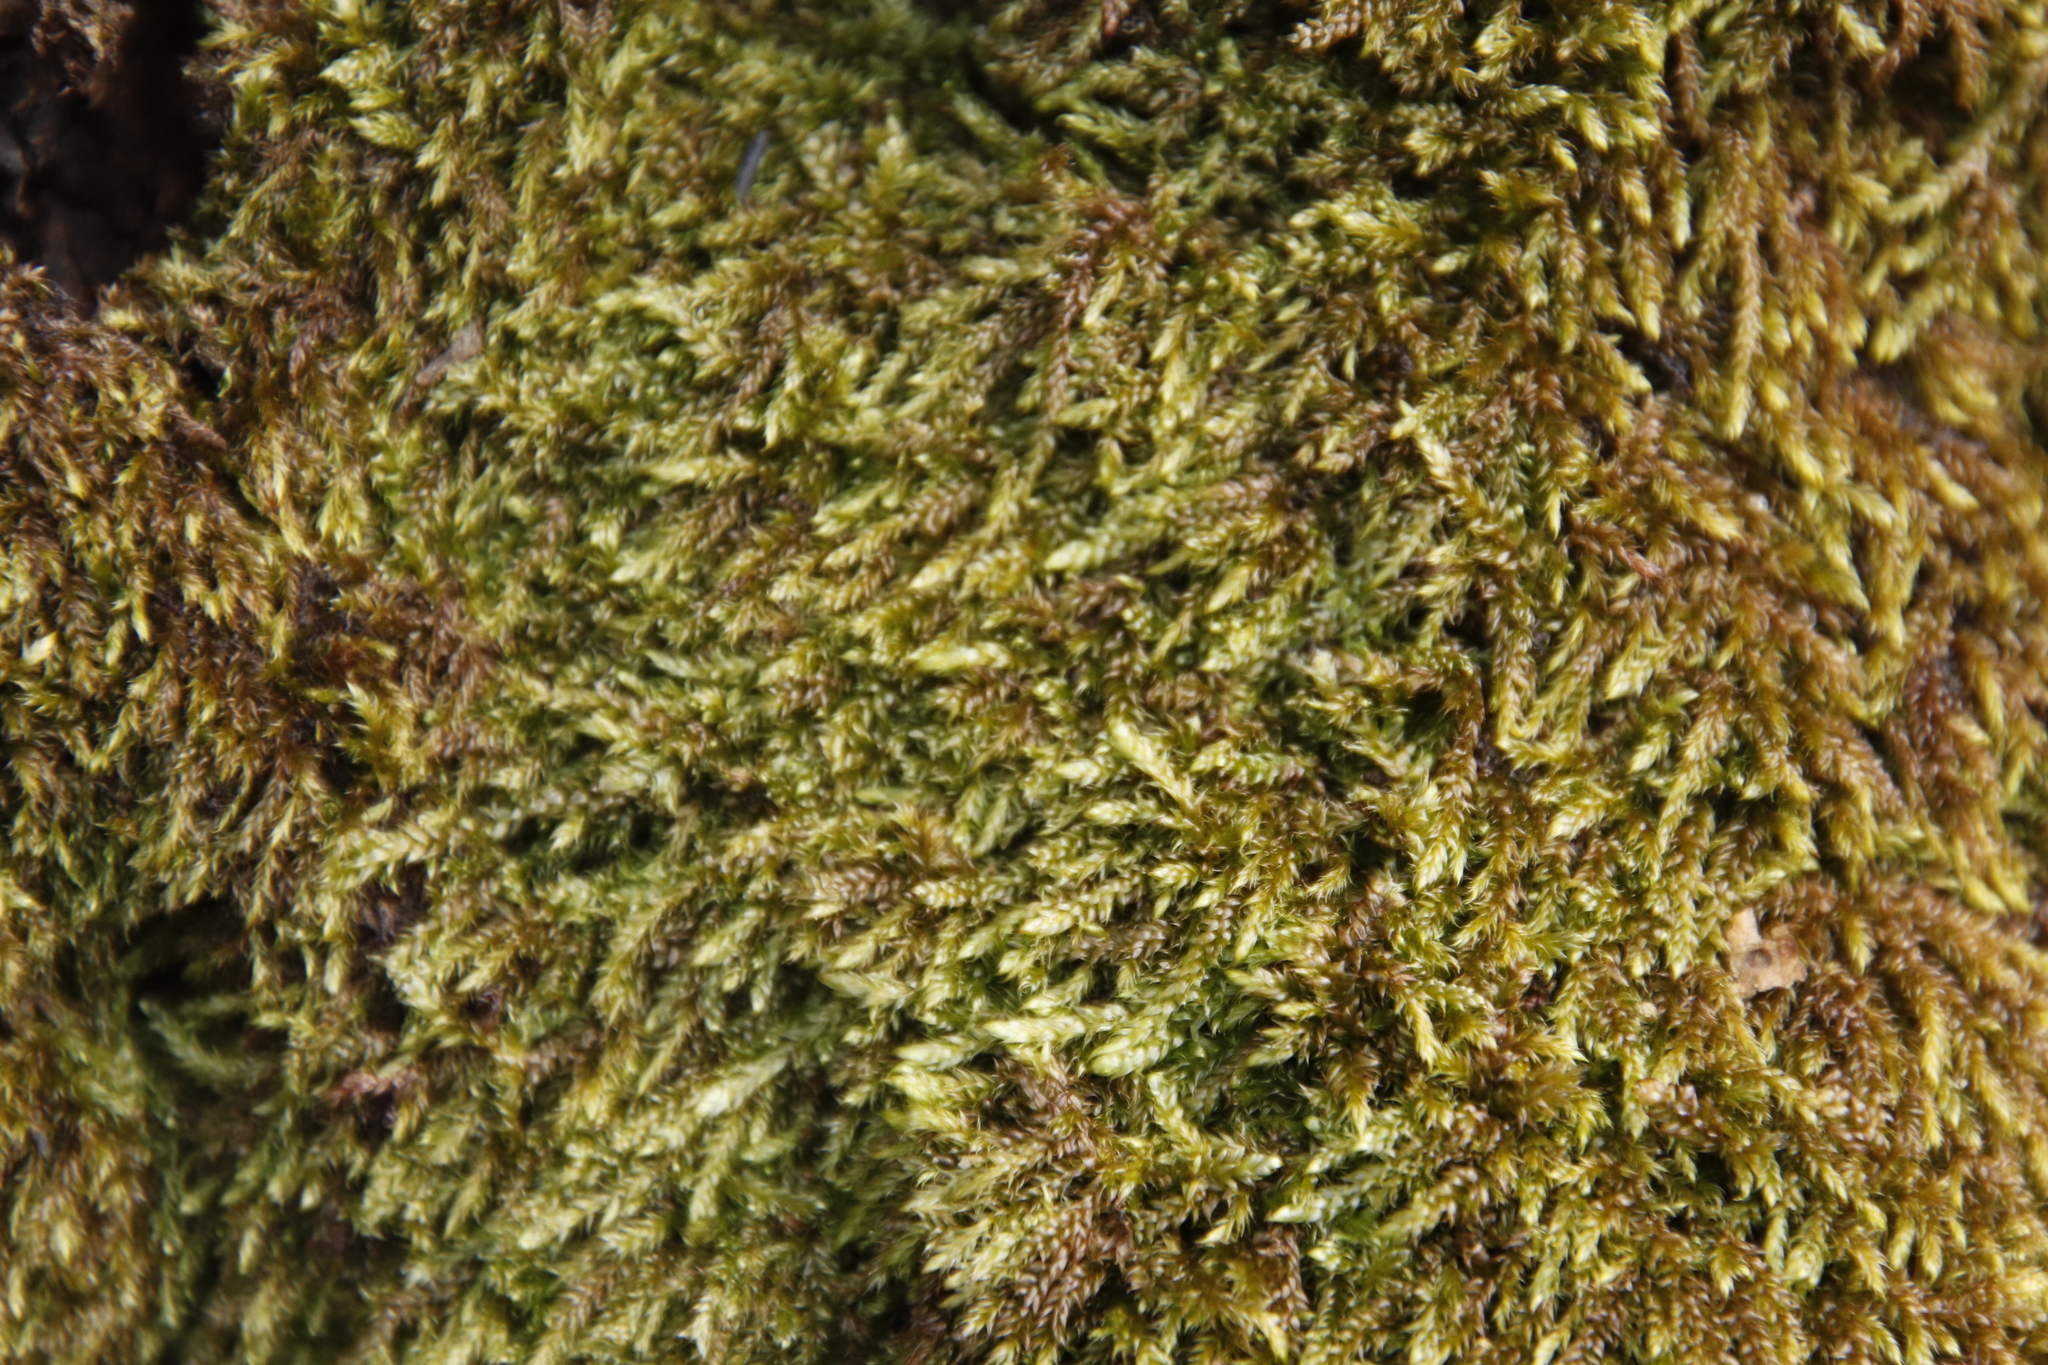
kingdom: Plantae
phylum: Bryophyta
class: Bryopsida
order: Hypnales
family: Hypnaceae
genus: Hypnum
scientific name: Hypnum cupressiforme
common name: Cypress-leaved plait-moss
